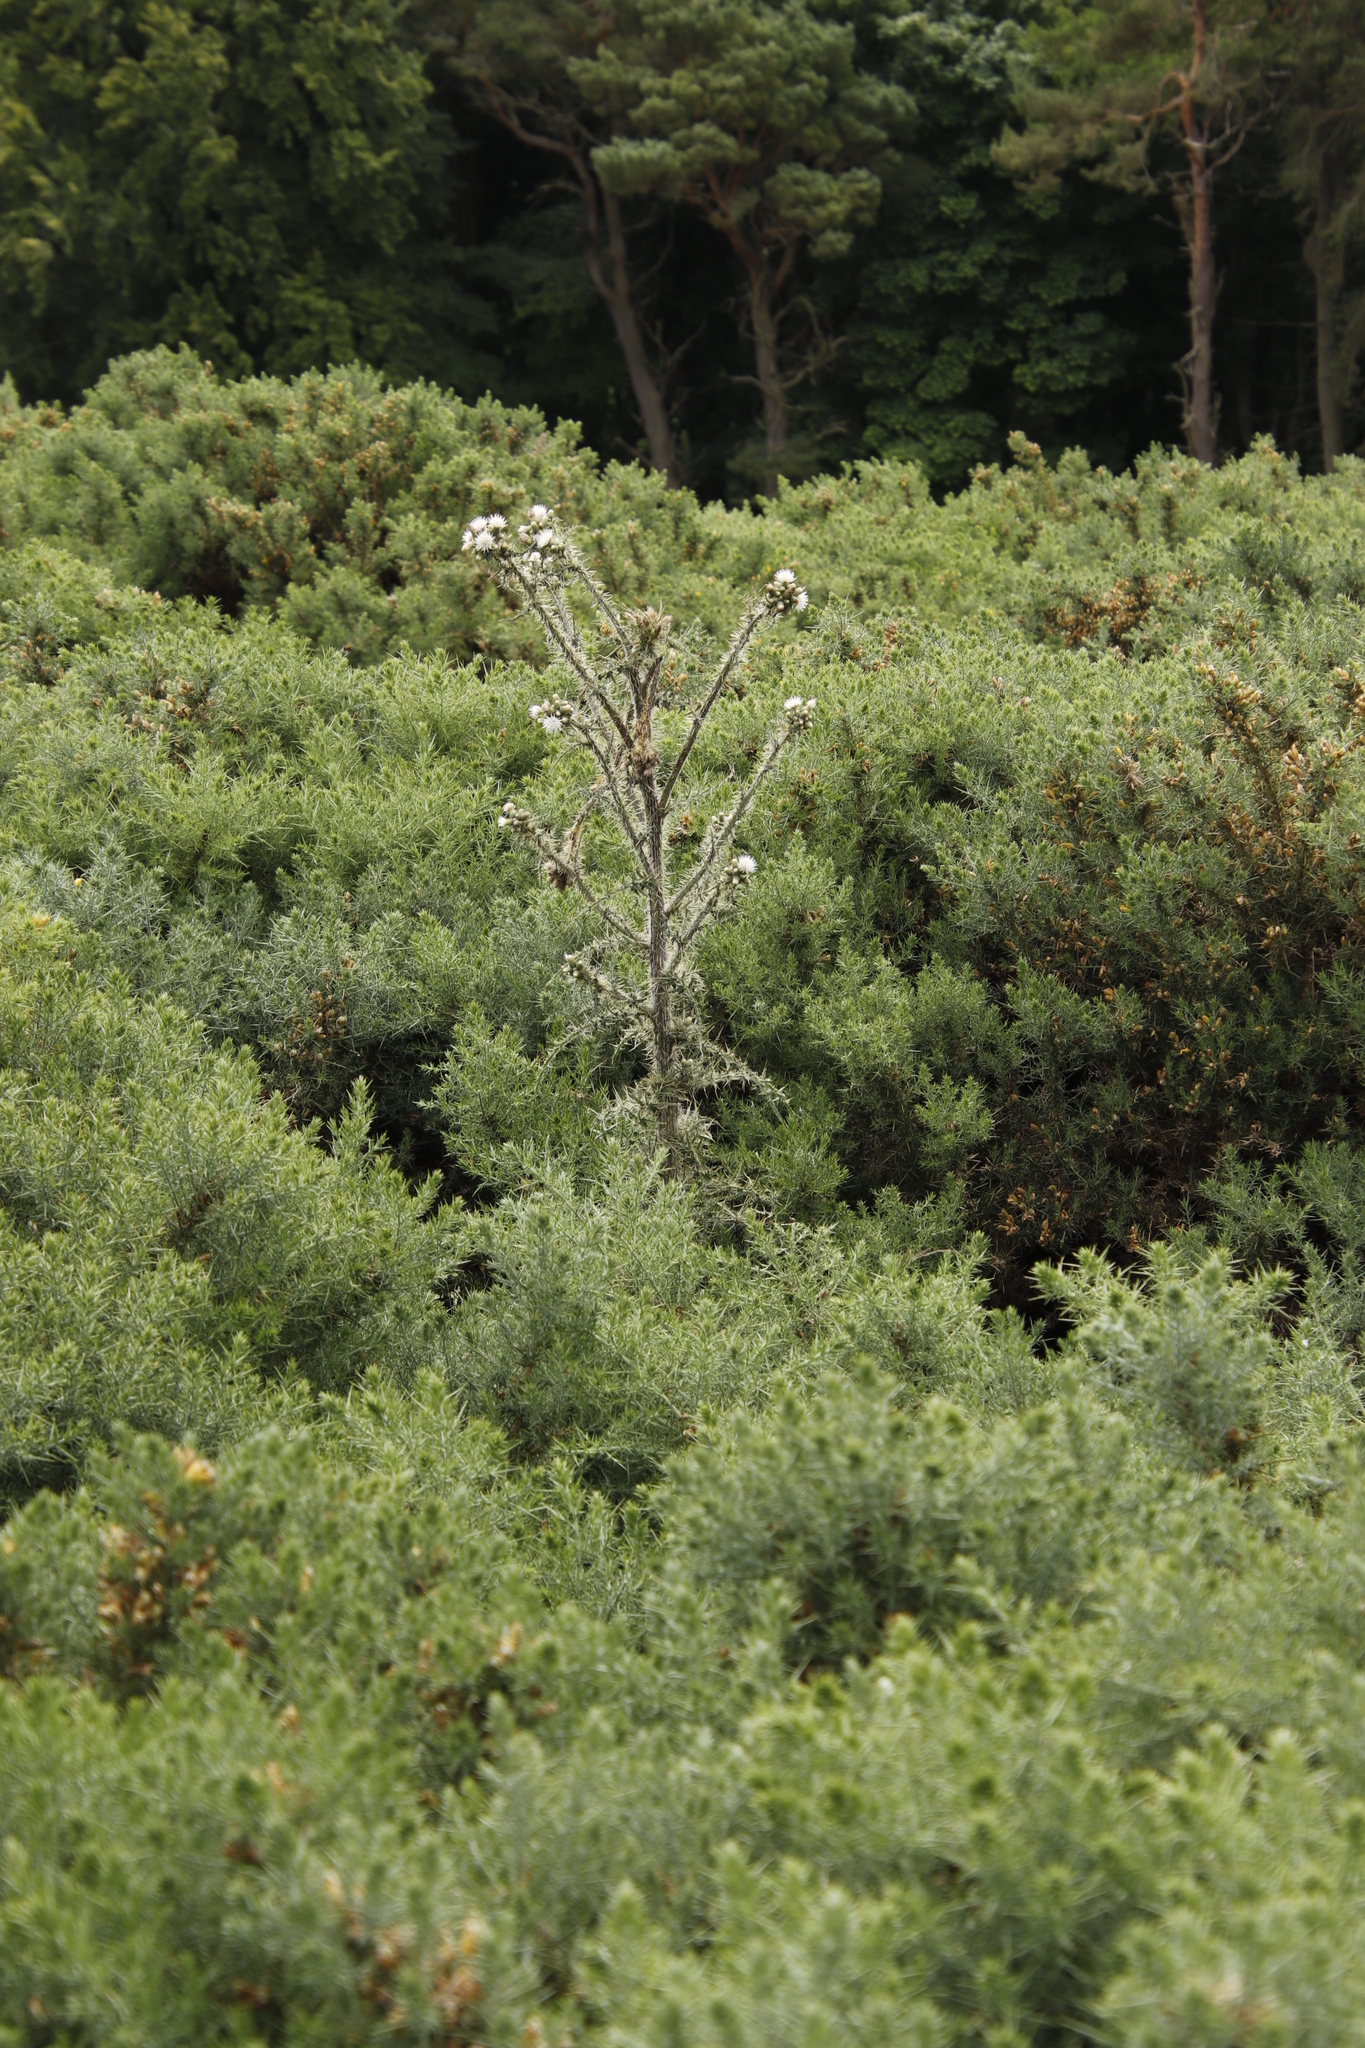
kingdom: Plantae
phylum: Tracheophyta
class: Magnoliopsida
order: Asterales
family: Asteraceae
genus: Cirsium
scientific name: Cirsium palustre
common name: Marsh thistle
